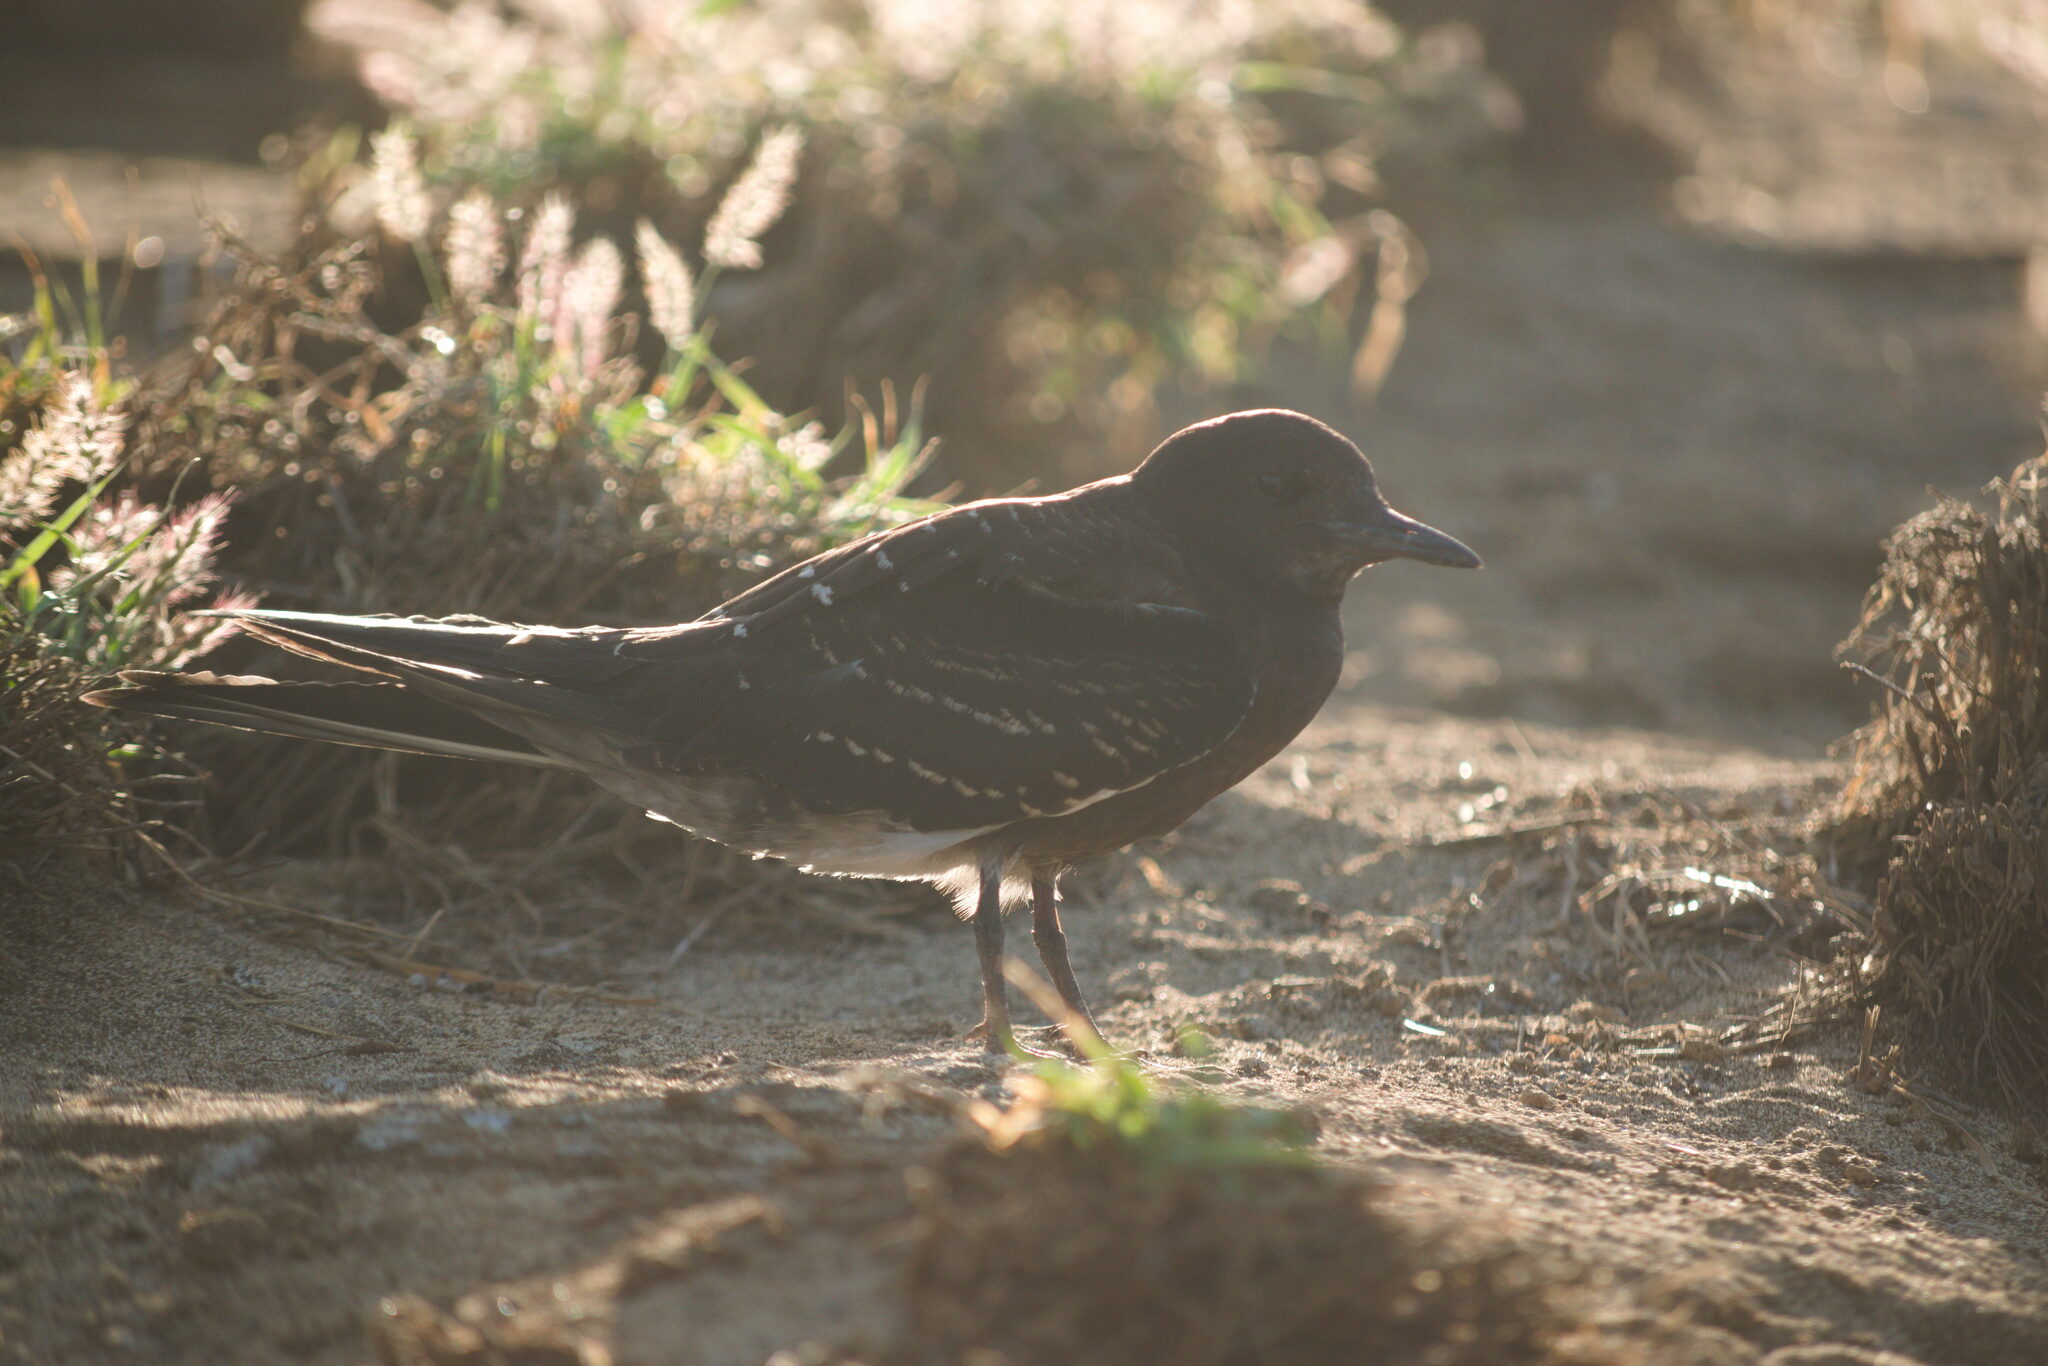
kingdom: Animalia
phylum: Chordata
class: Aves
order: Charadriiformes
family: Laridae
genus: Onychoprion
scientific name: Onychoprion fuscatus
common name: Sooty tern
